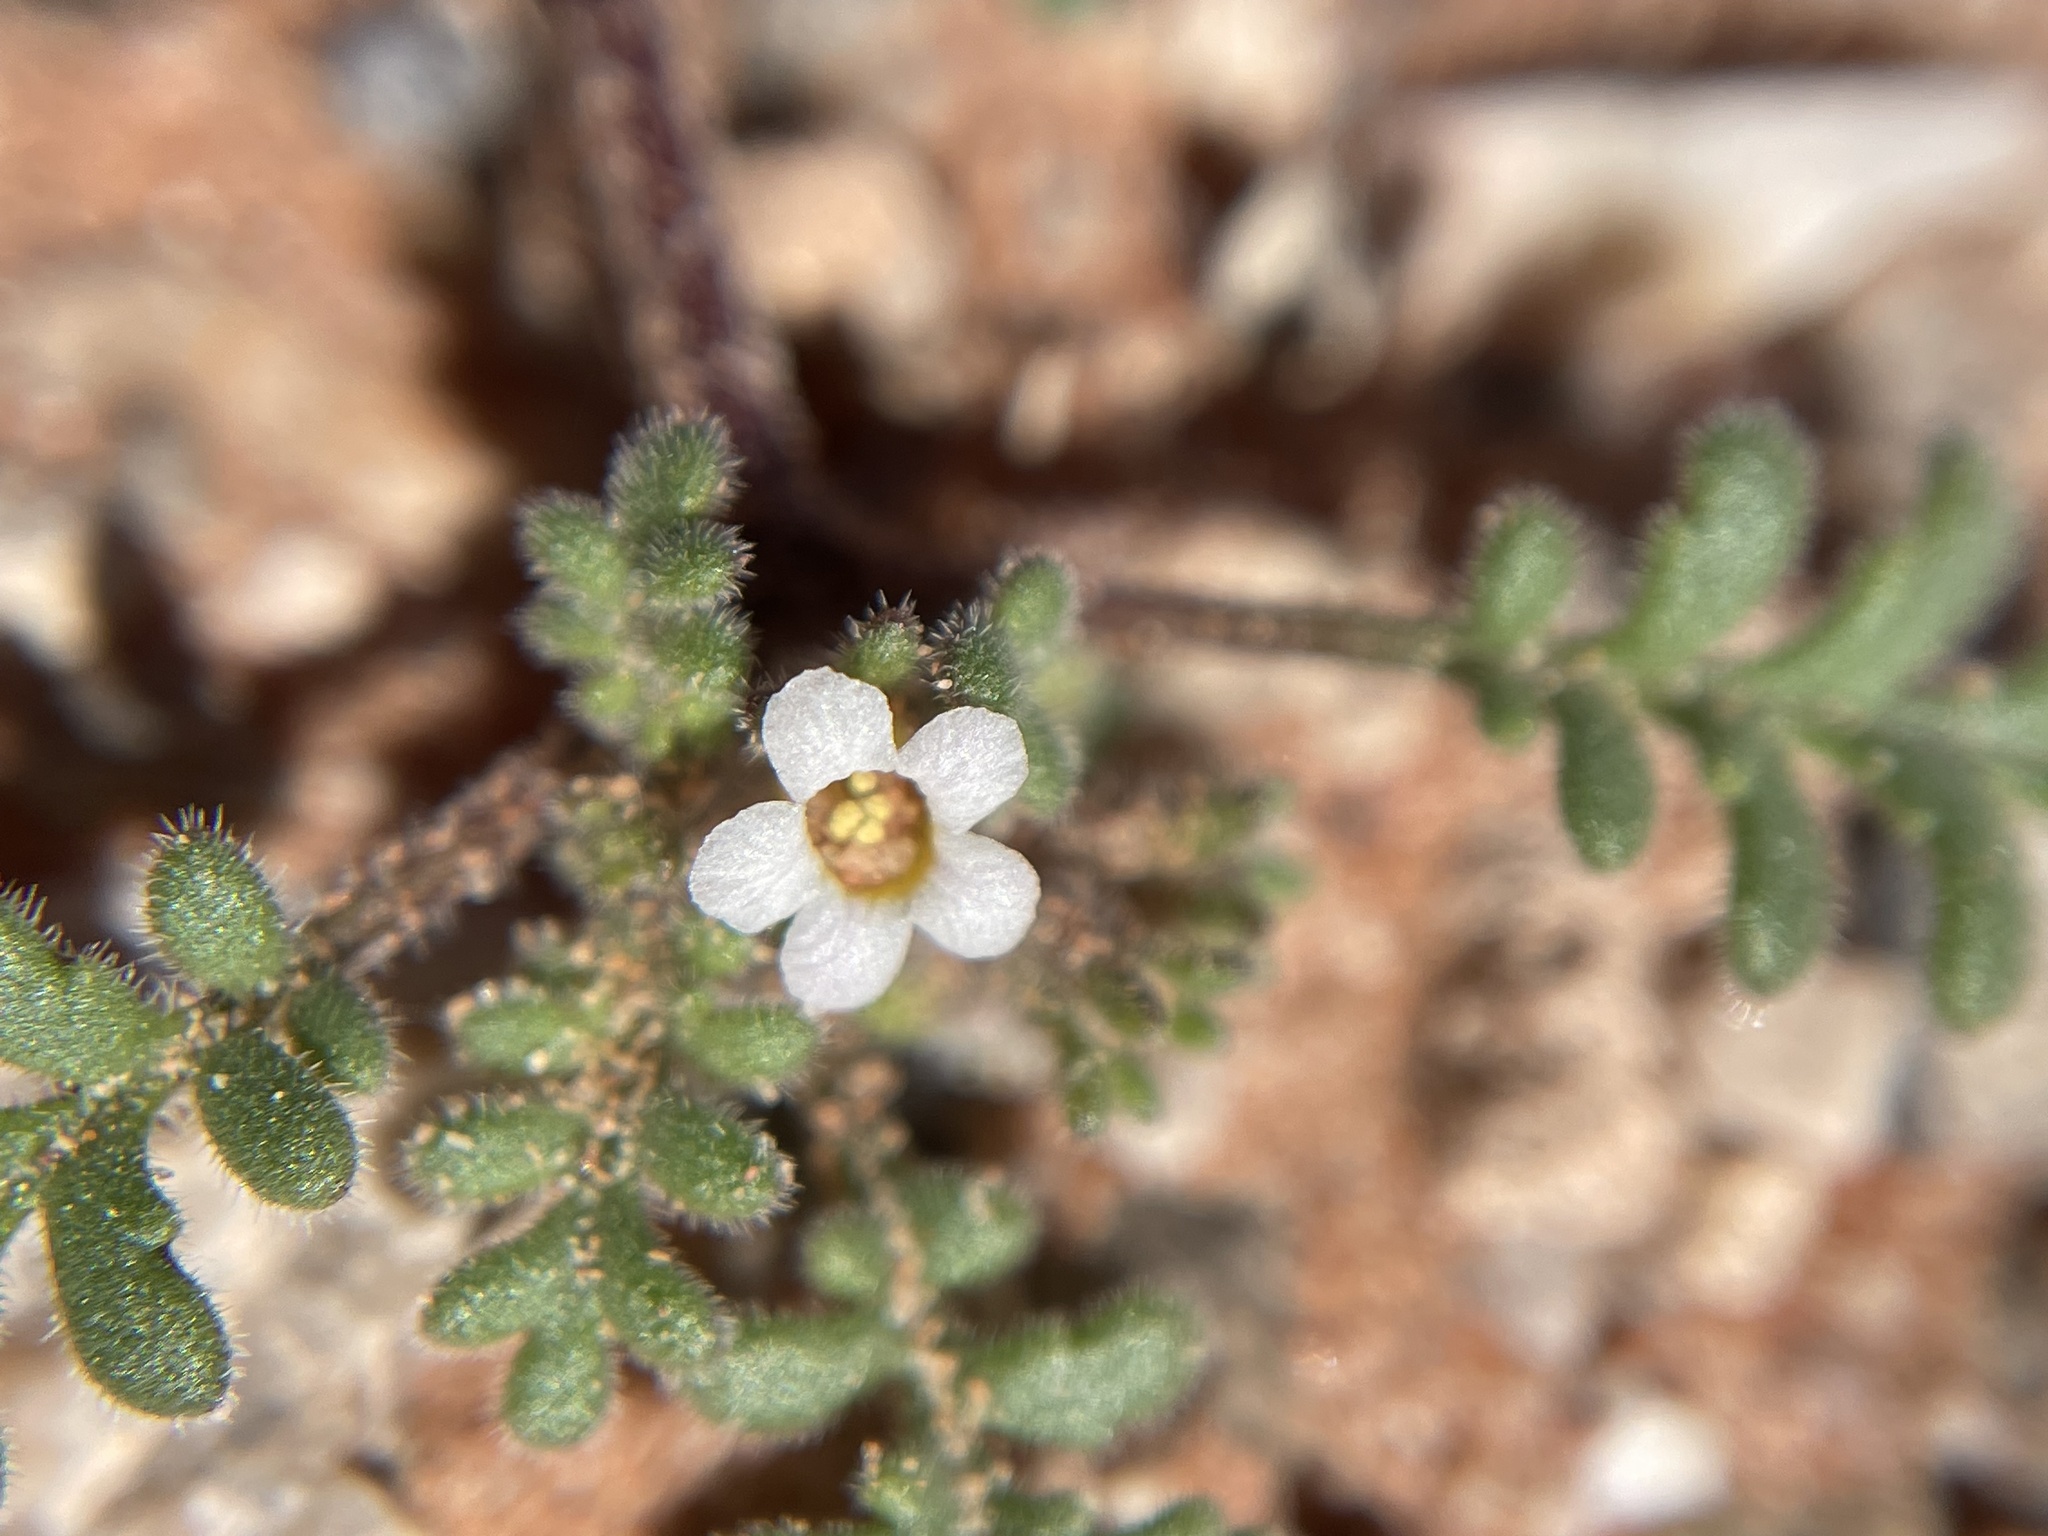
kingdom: Plantae
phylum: Tracheophyta
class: Magnoliopsida
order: Boraginales
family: Hydrophyllaceae
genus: Phacelia
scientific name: Phacelia ivesiana
